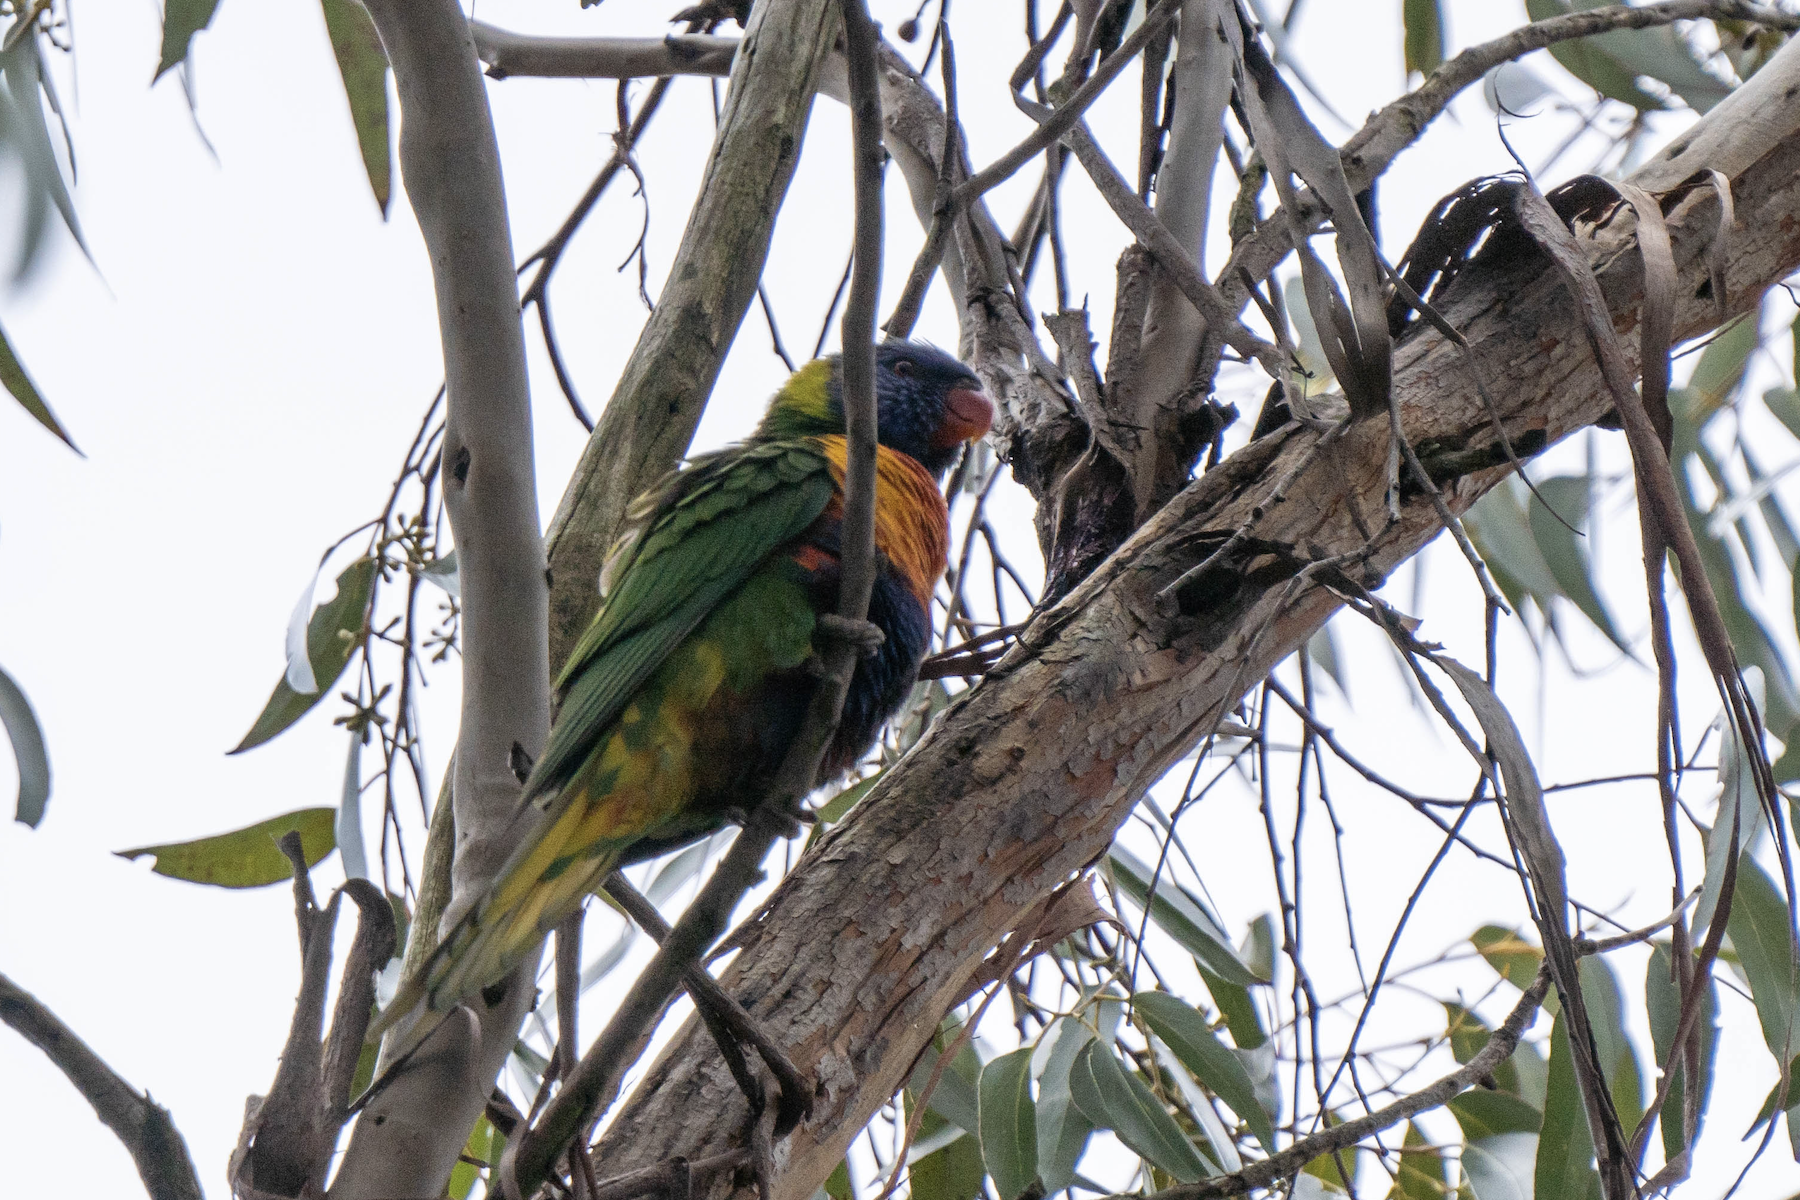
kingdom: Animalia
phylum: Chordata
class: Aves
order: Psittaciformes
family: Psittacidae
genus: Trichoglossus
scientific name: Trichoglossus haematodus
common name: Coconut lorikeet
